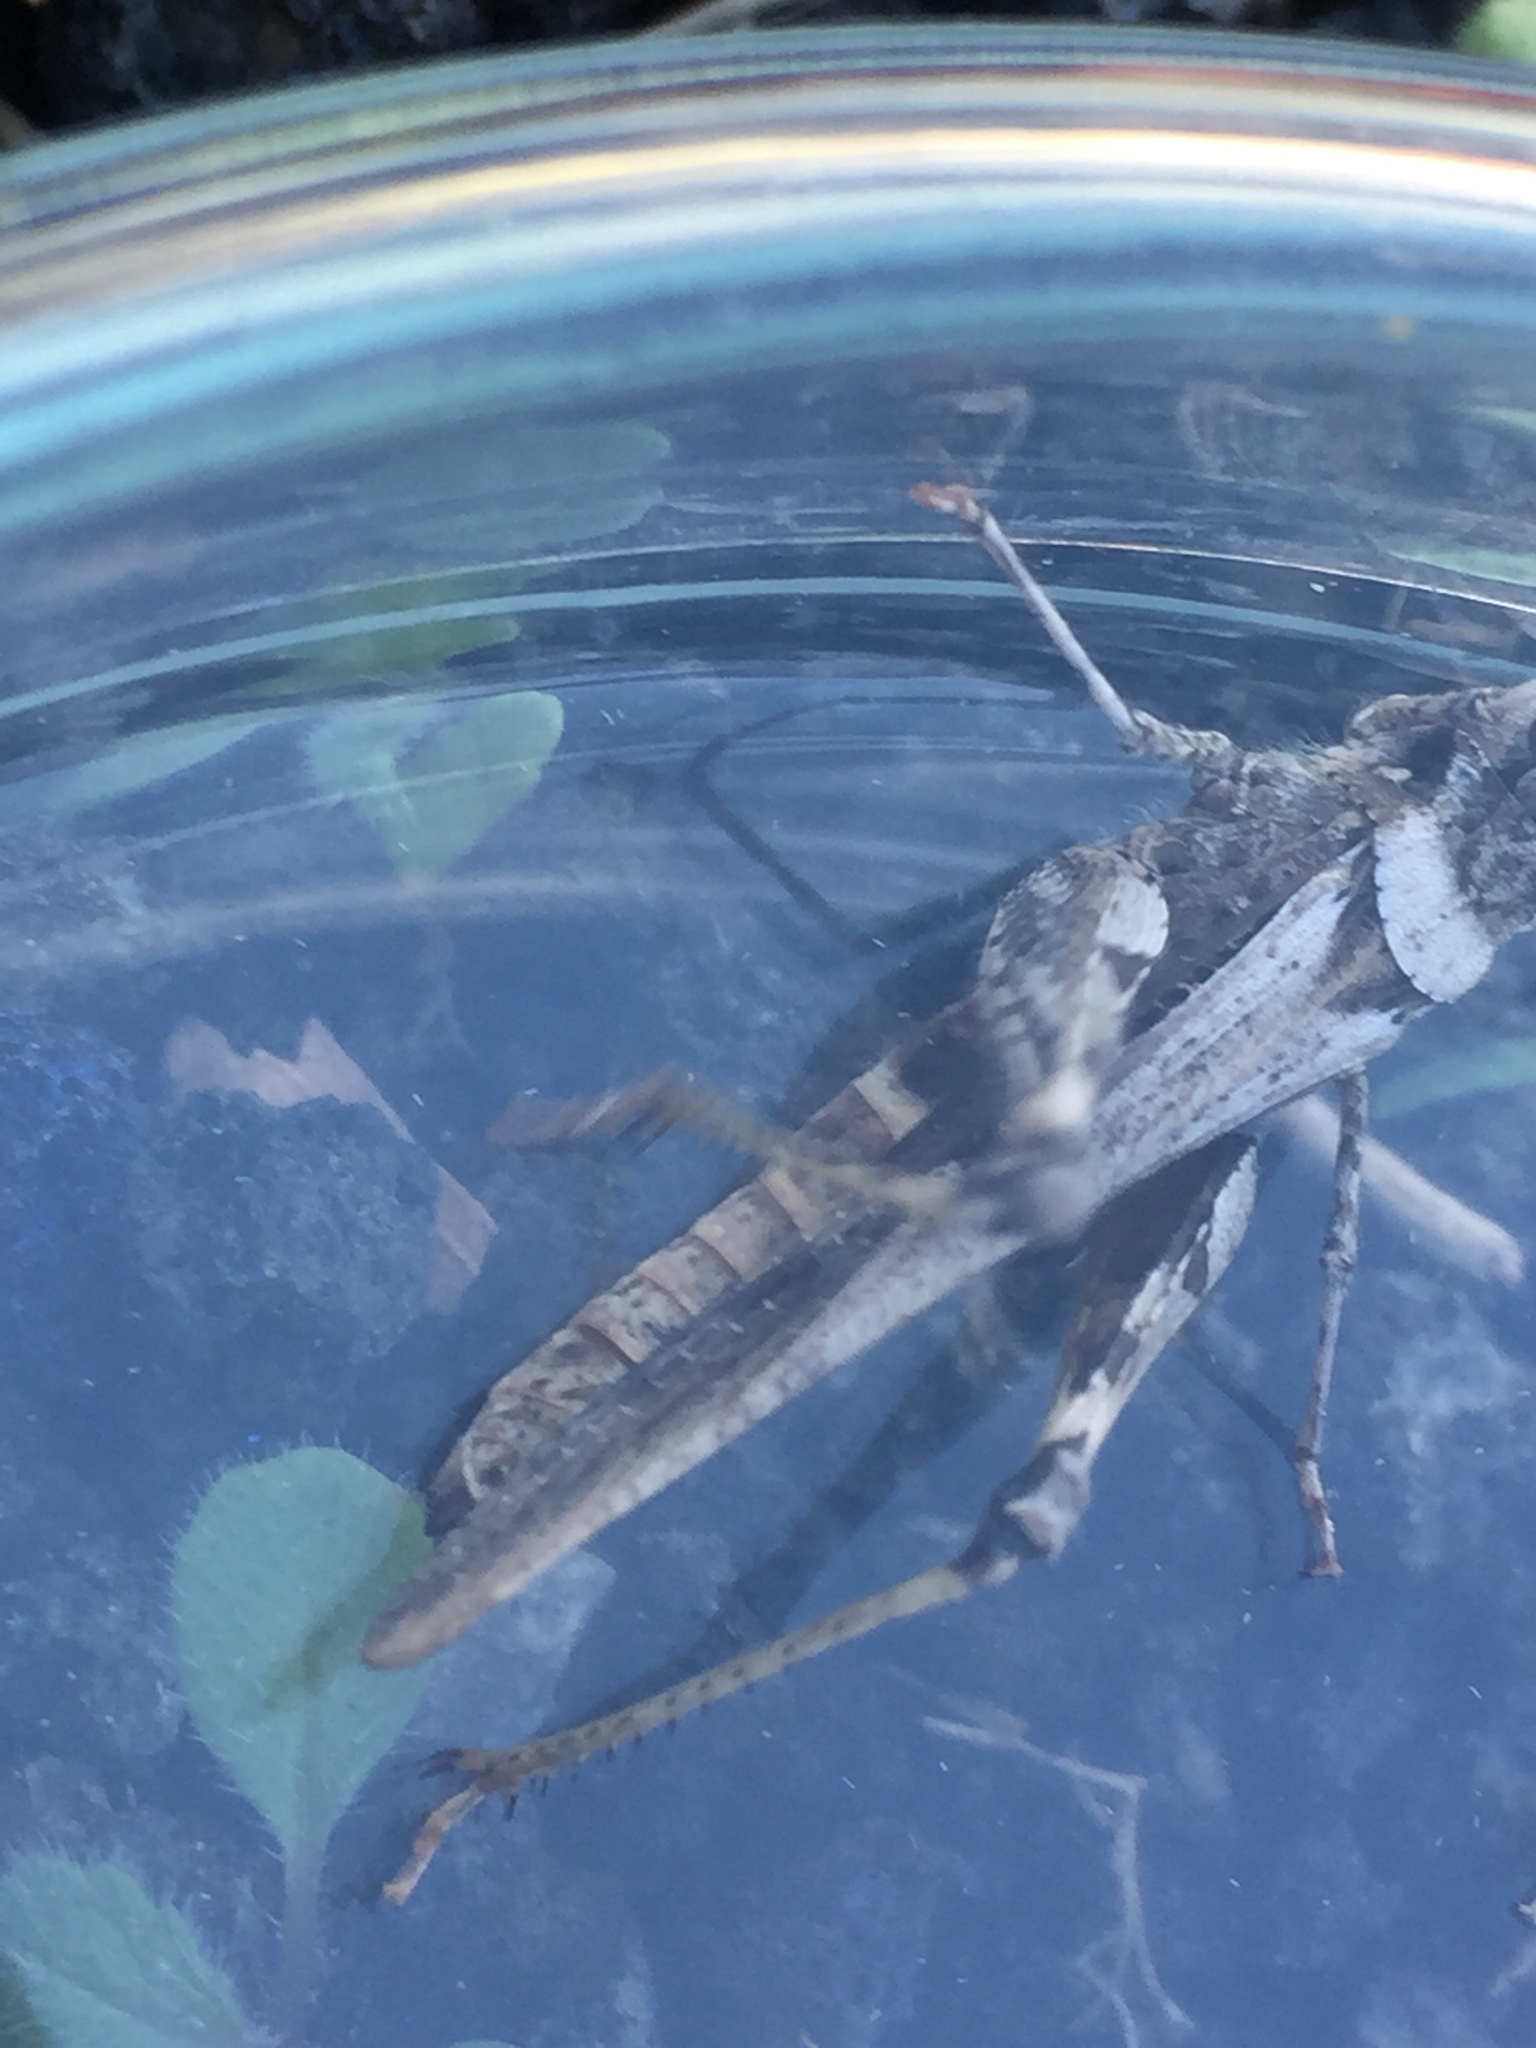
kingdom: Animalia
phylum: Arthropoda
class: Insecta
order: Orthoptera
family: Acrididae
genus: Acrotylus
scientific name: Acrotylus insubricus
